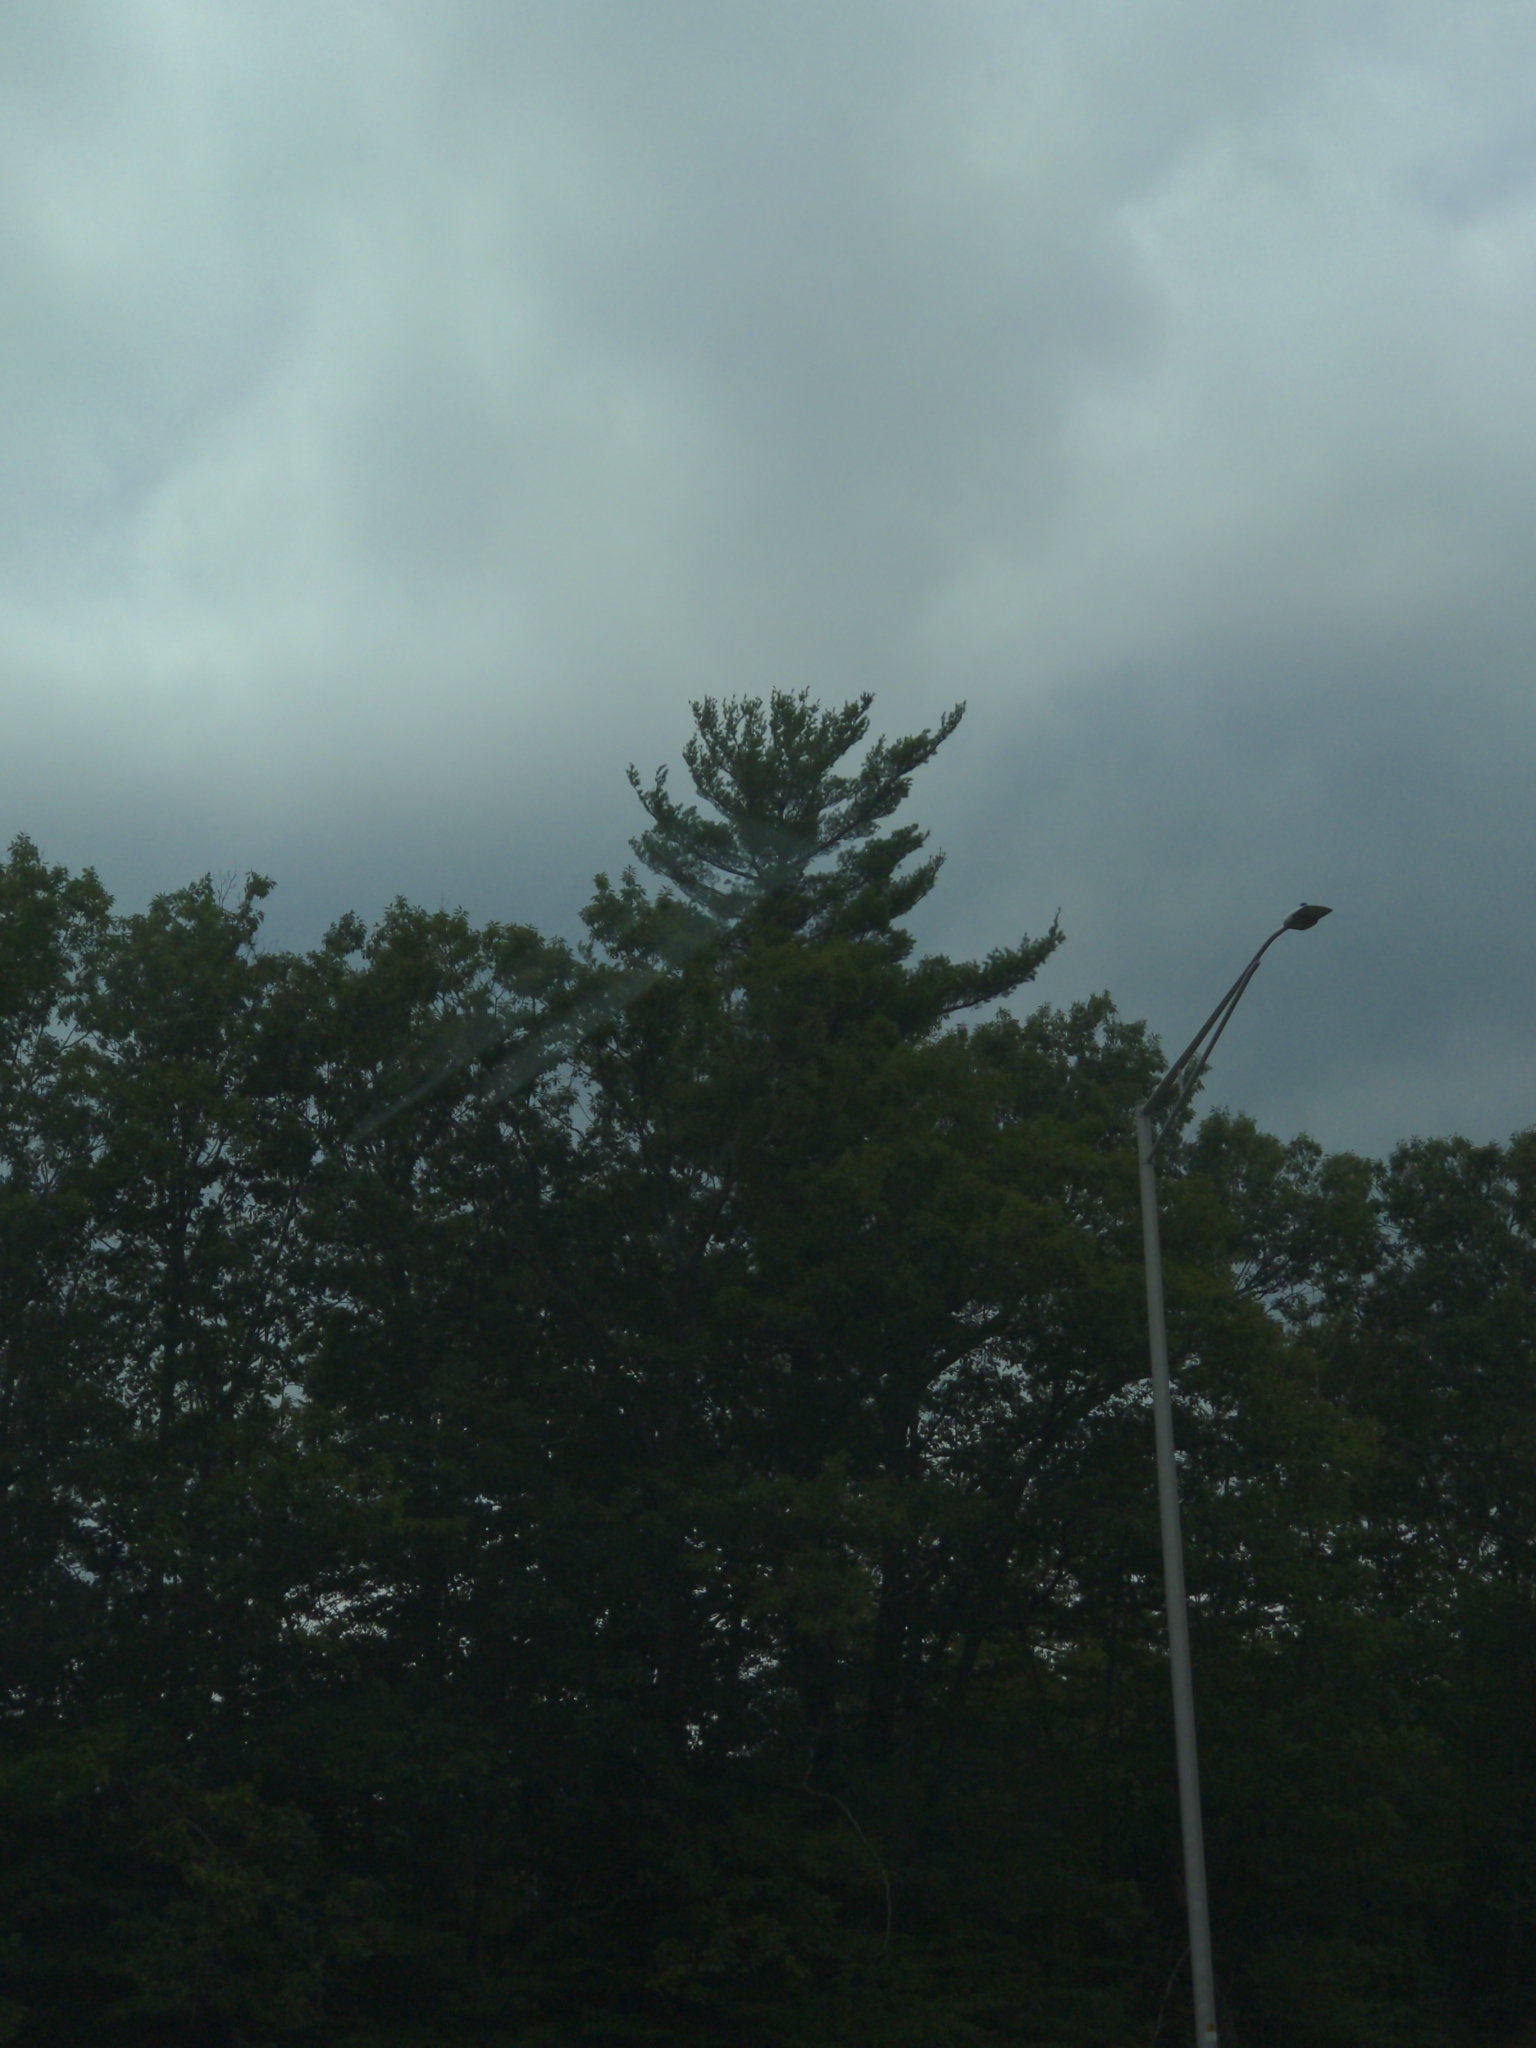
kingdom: Plantae
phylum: Tracheophyta
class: Pinopsida
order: Pinales
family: Pinaceae
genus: Pinus
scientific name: Pinus strobus
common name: Weymouth pine
